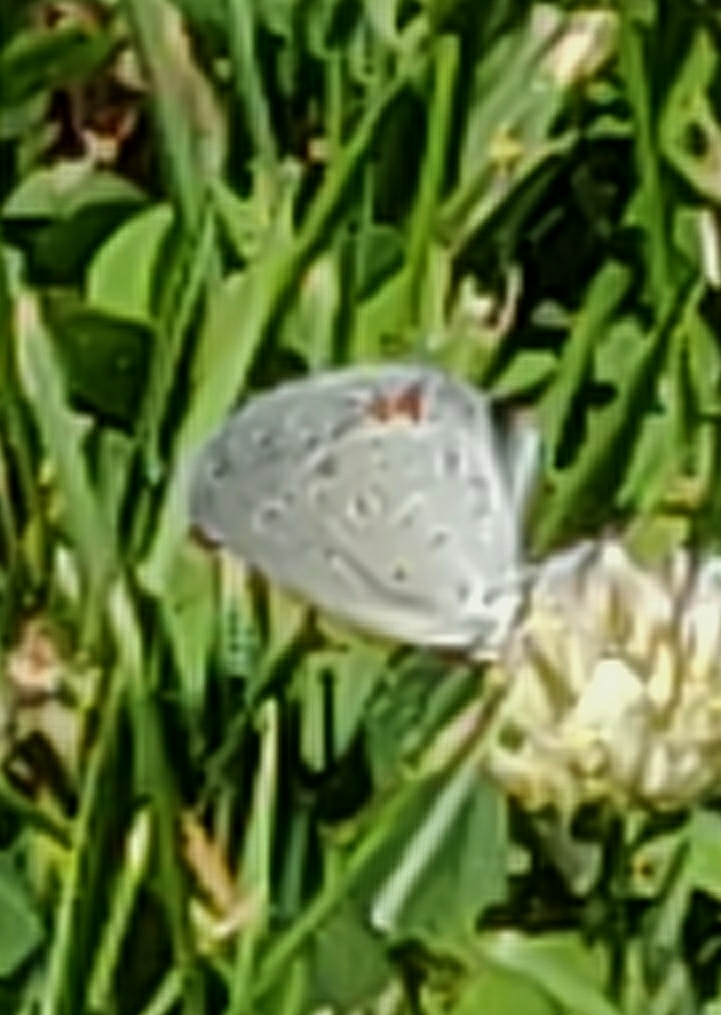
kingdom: Animalia
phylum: Arthropoda
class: Insecta
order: Lepidoptera
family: Lycaenidae
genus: Elkalyce
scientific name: Elkalyce comyntas
